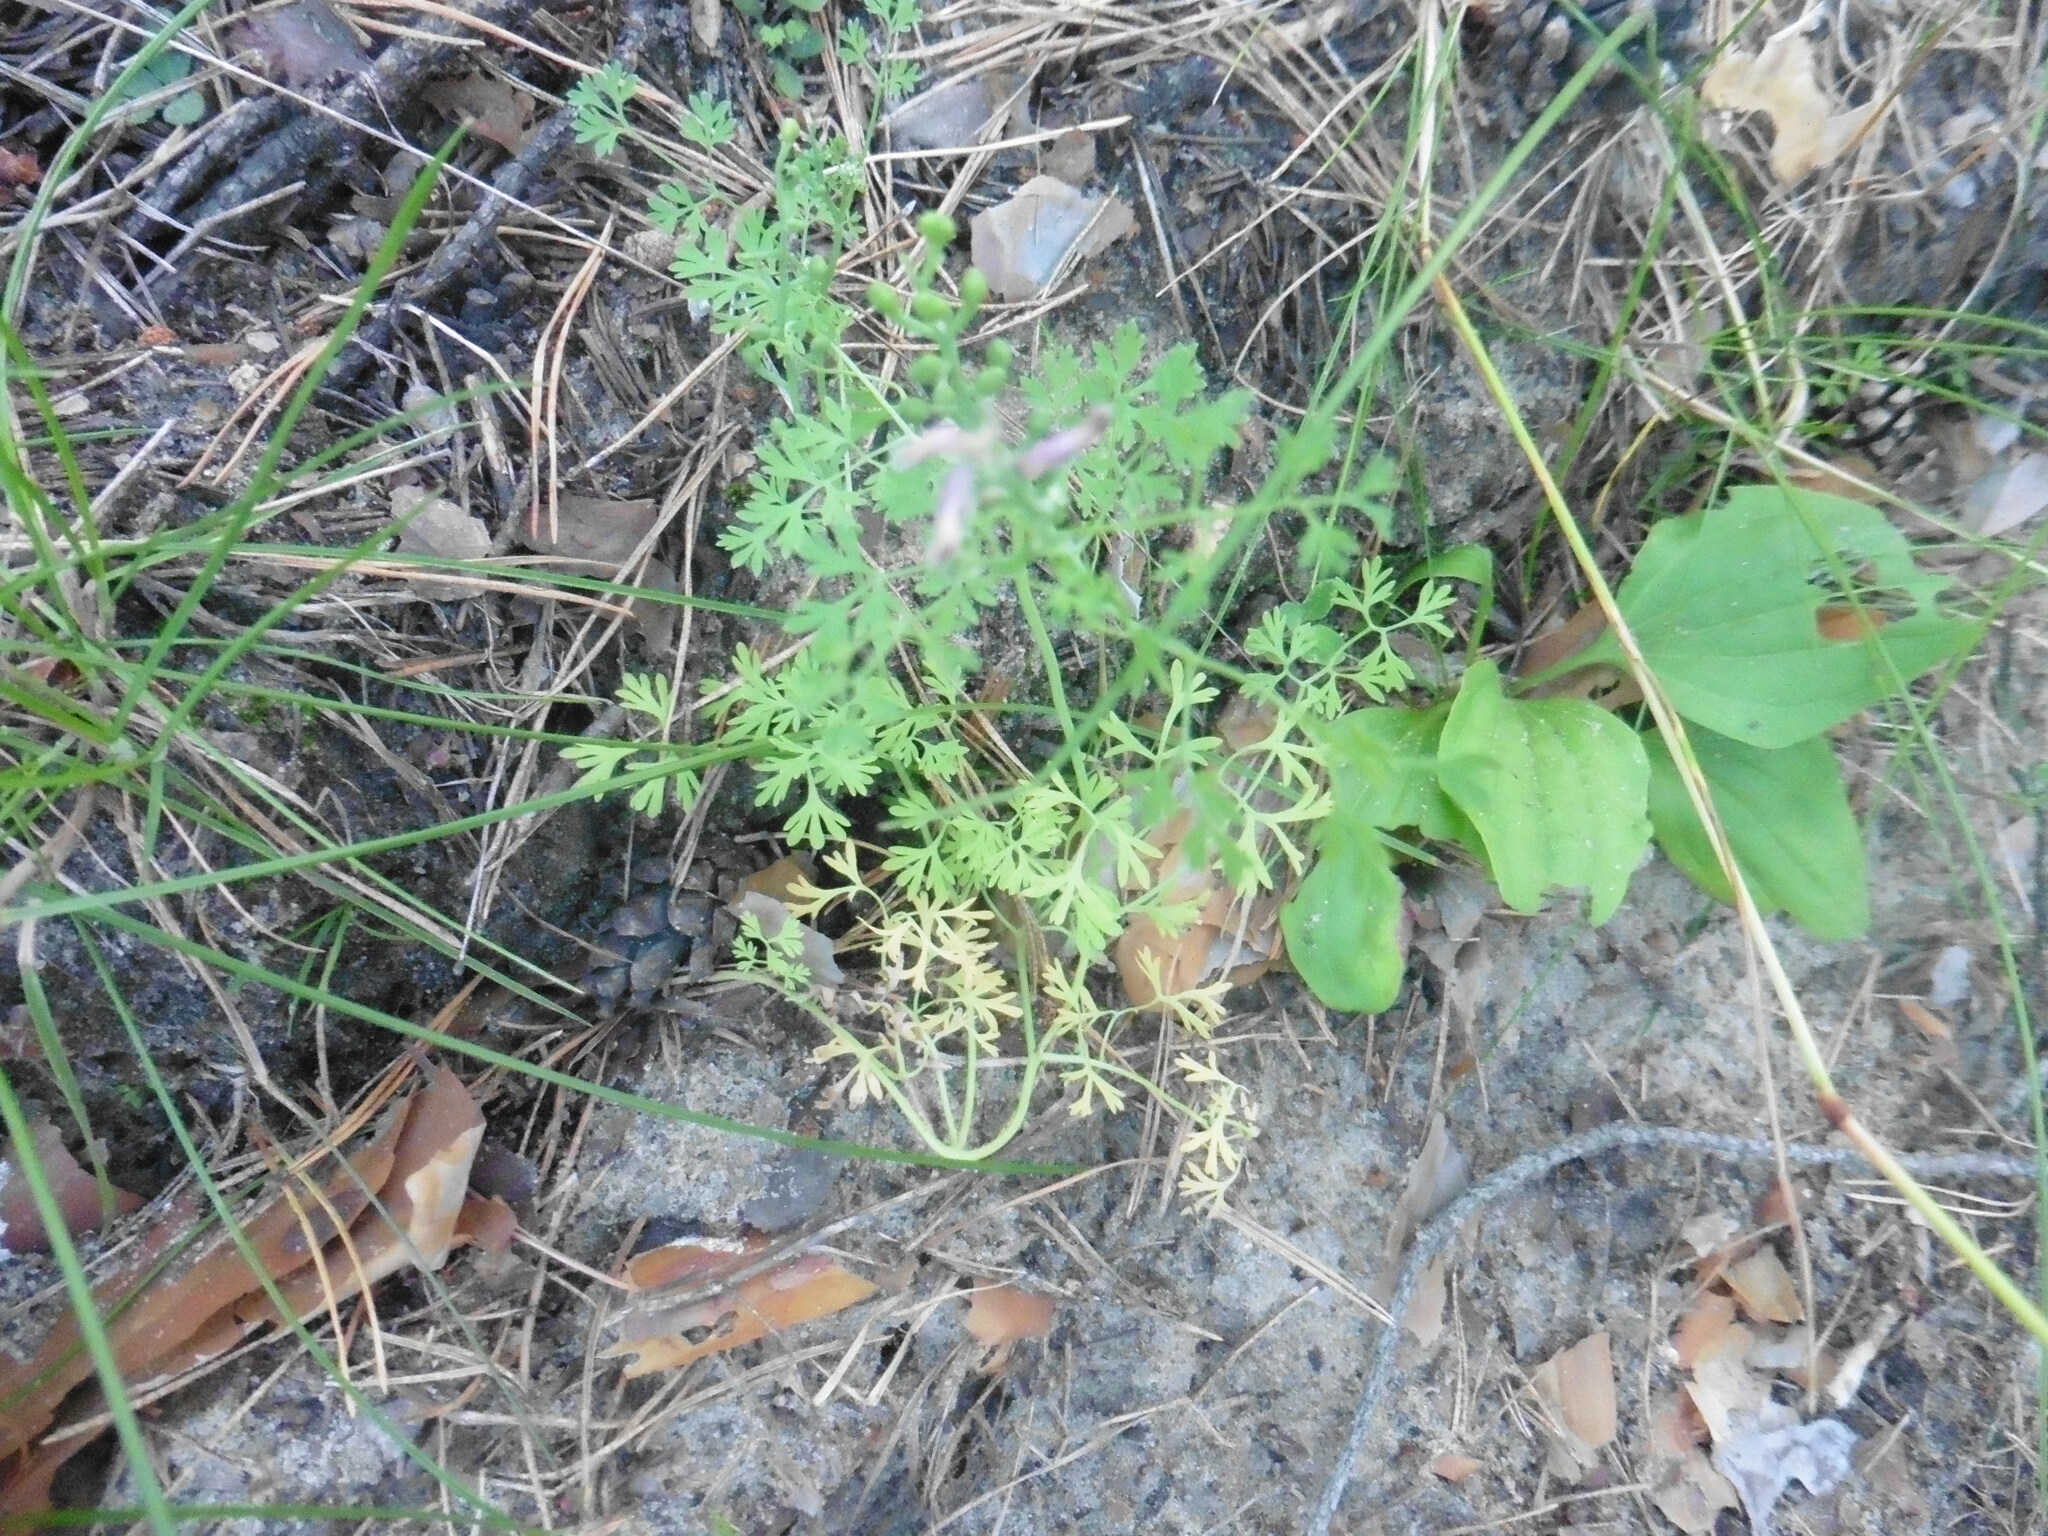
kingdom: Plantae
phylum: Tracheophyta
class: Magnoliopsida
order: Ranunculales
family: Papaveraceae
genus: Fumaria
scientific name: Fumaria officinalis
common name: Common fumitory
